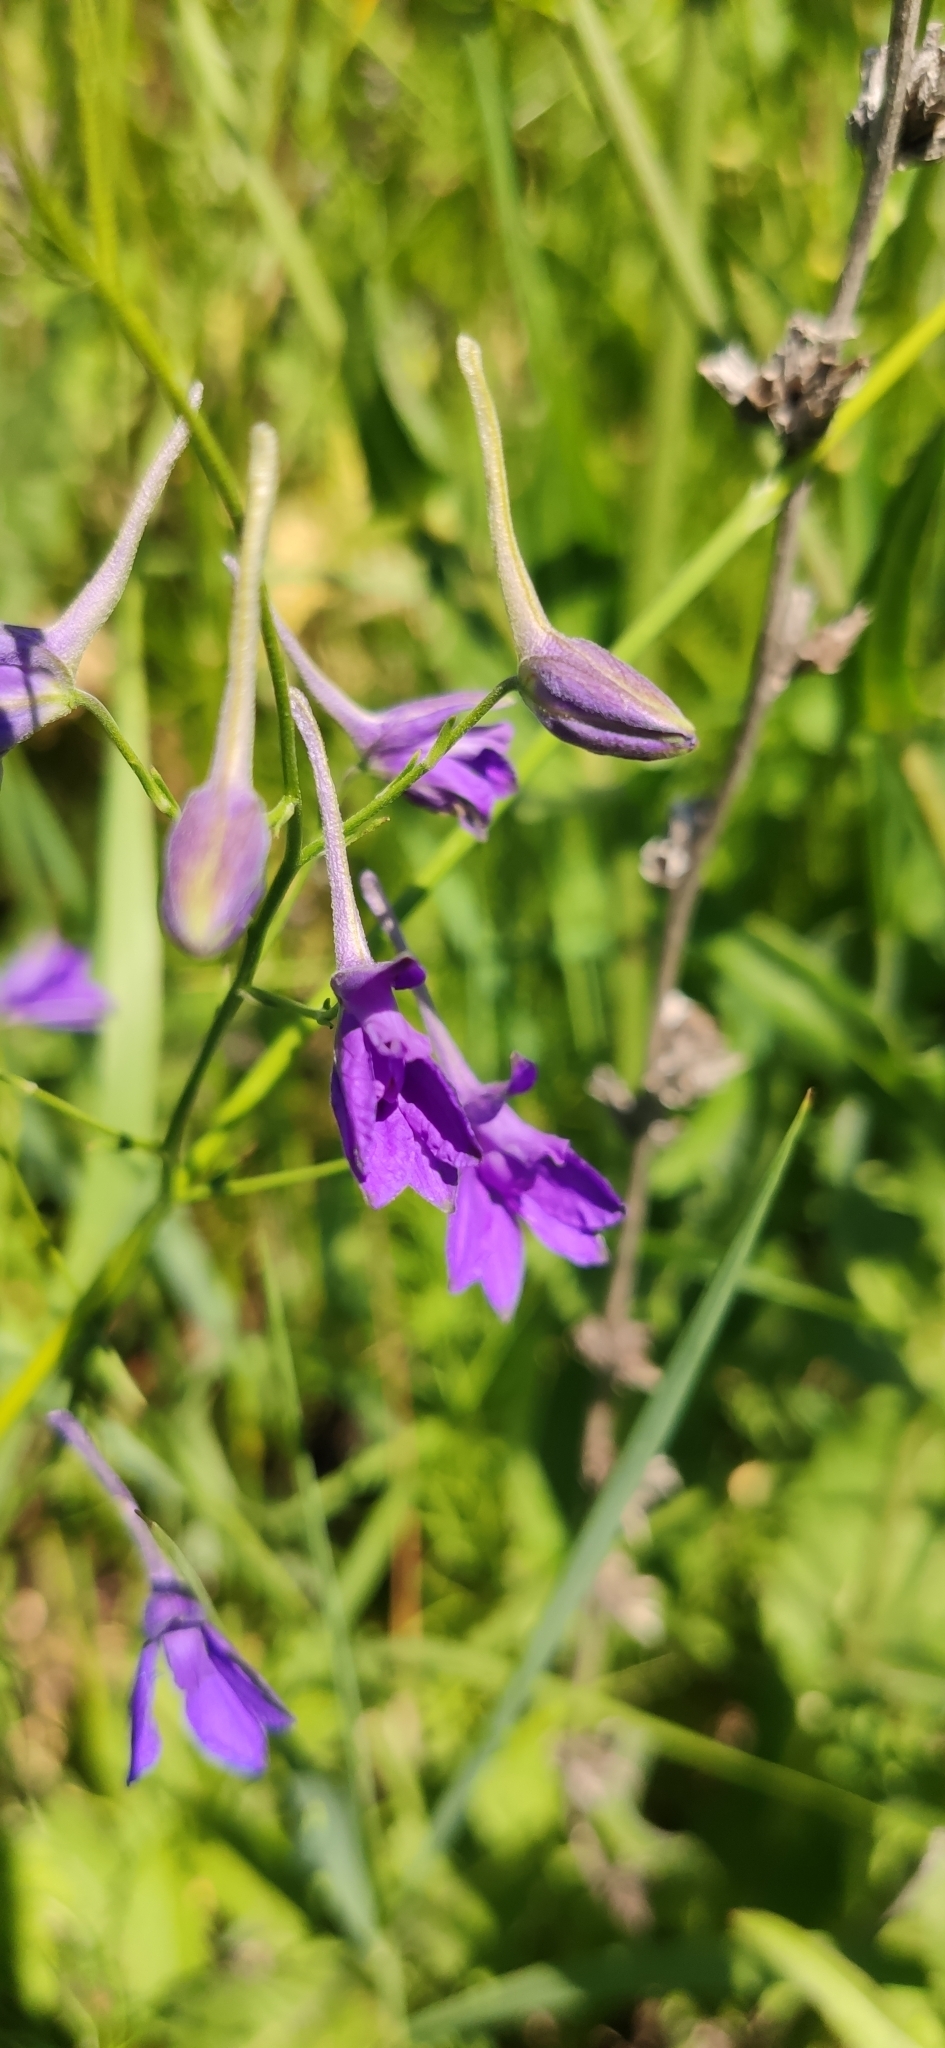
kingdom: Plantae
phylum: Tracheophyta
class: Magnoliopsida
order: Ranunculales
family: Ranunculaceae
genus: Delphinium
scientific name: Delphinium consolida
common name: Branching larkspur
